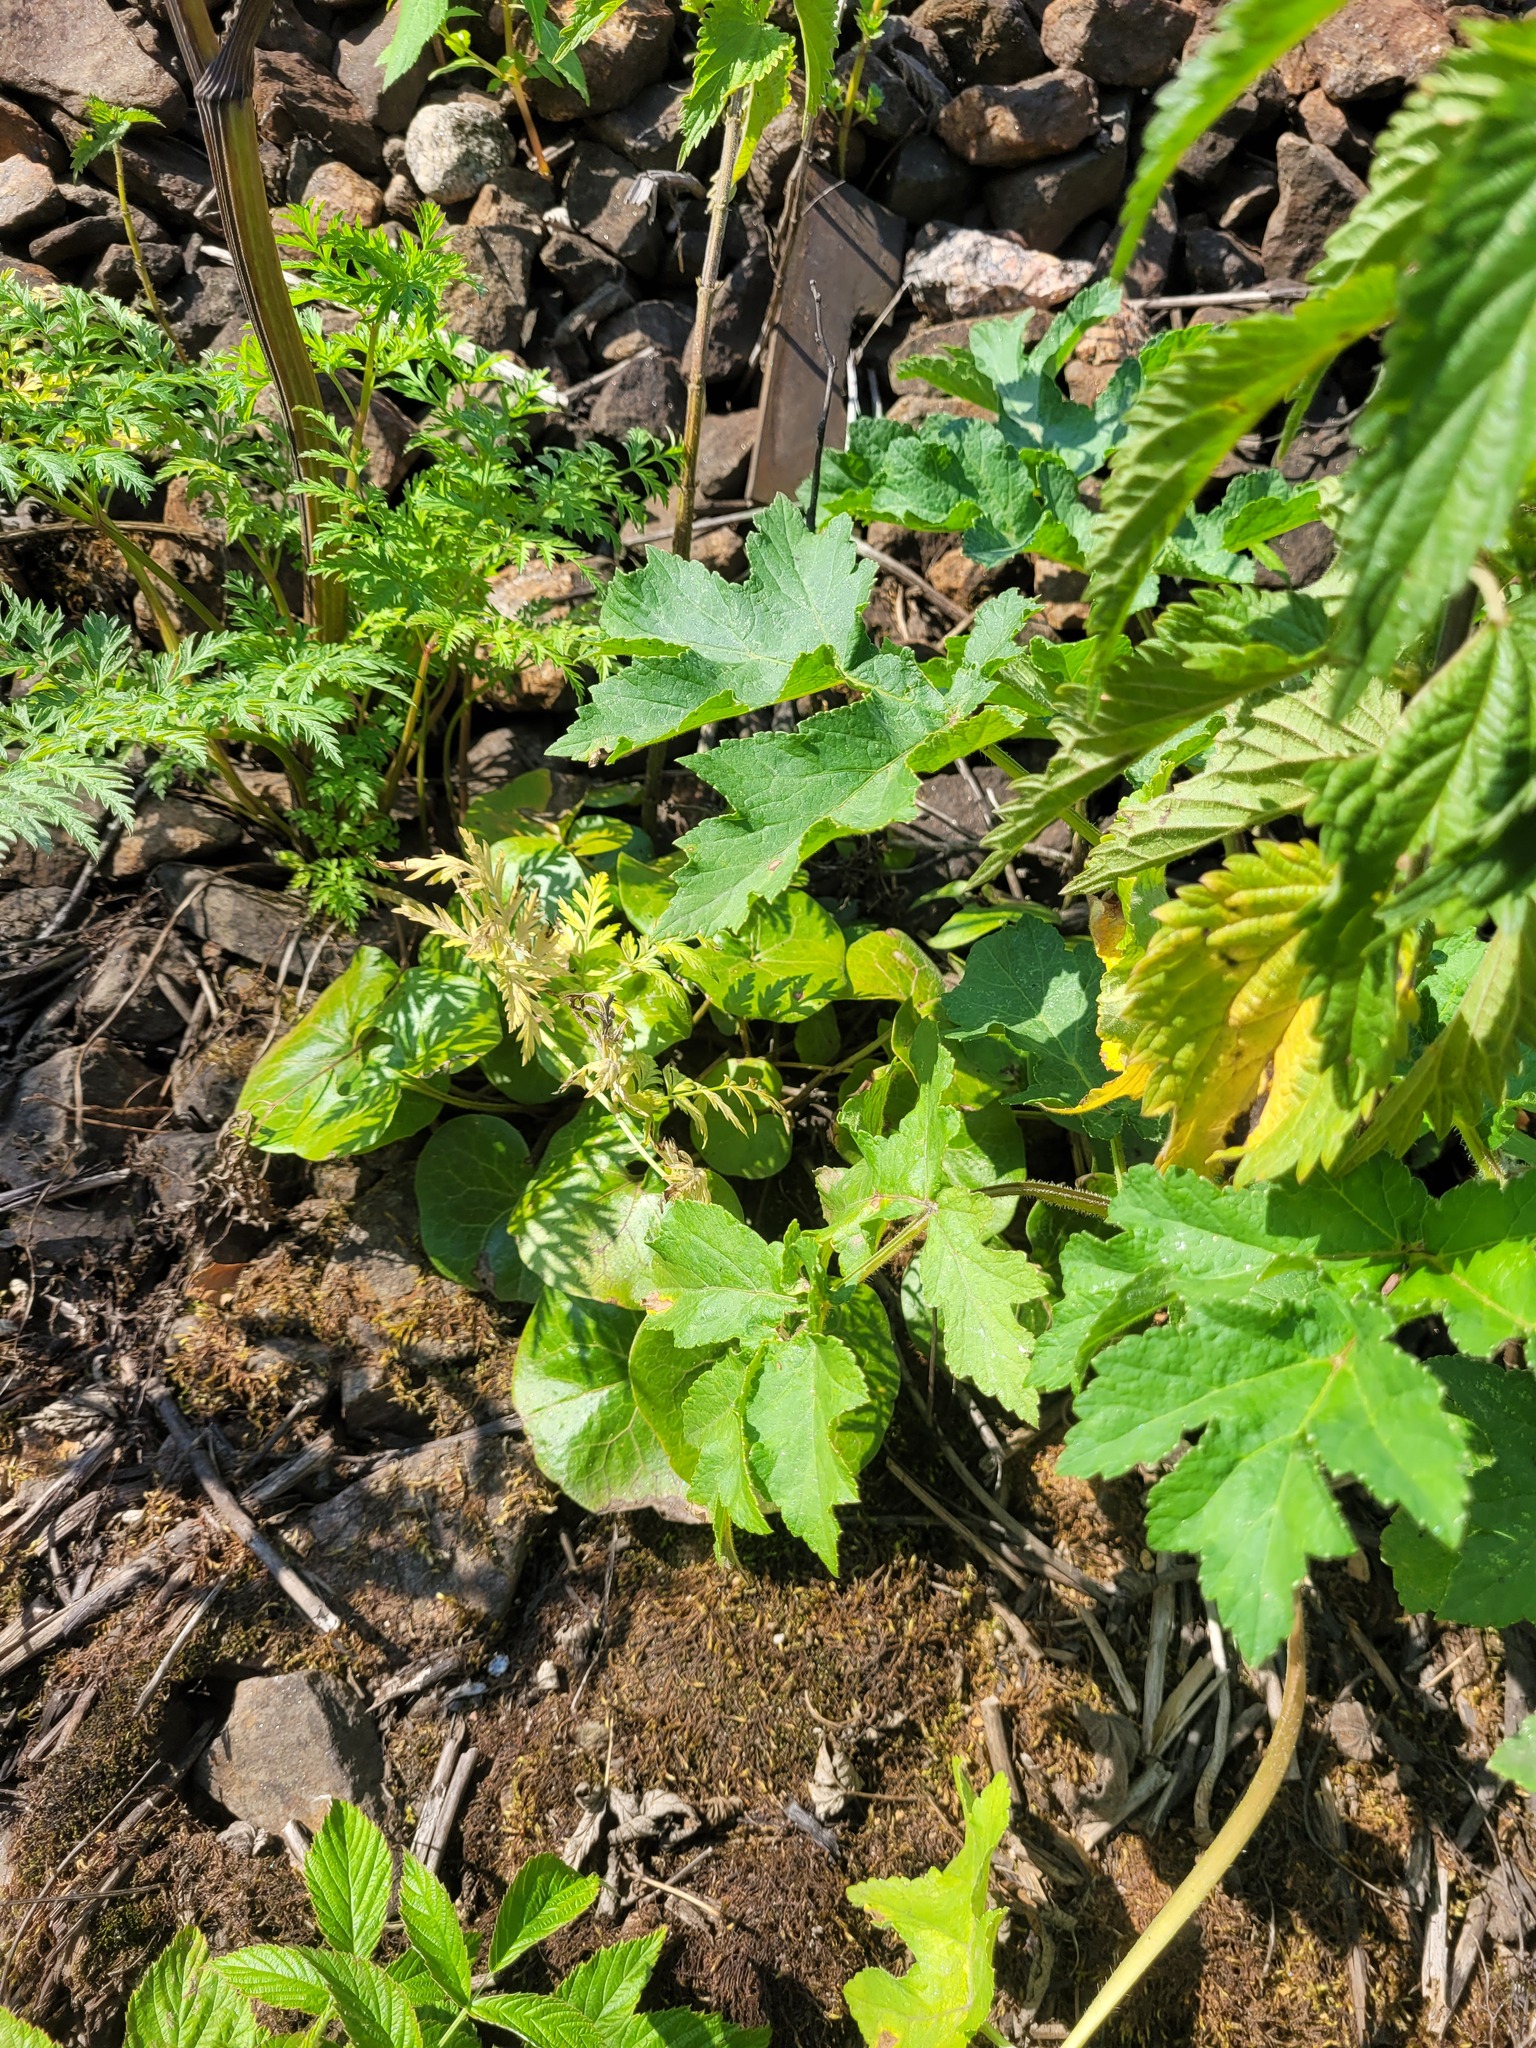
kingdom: Plantae
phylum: Tracheophyta
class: Magnoliopsida
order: Piperales
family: Aristolochiaceae
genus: Asarum
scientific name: Asarum europaeum
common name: Asarabacca
